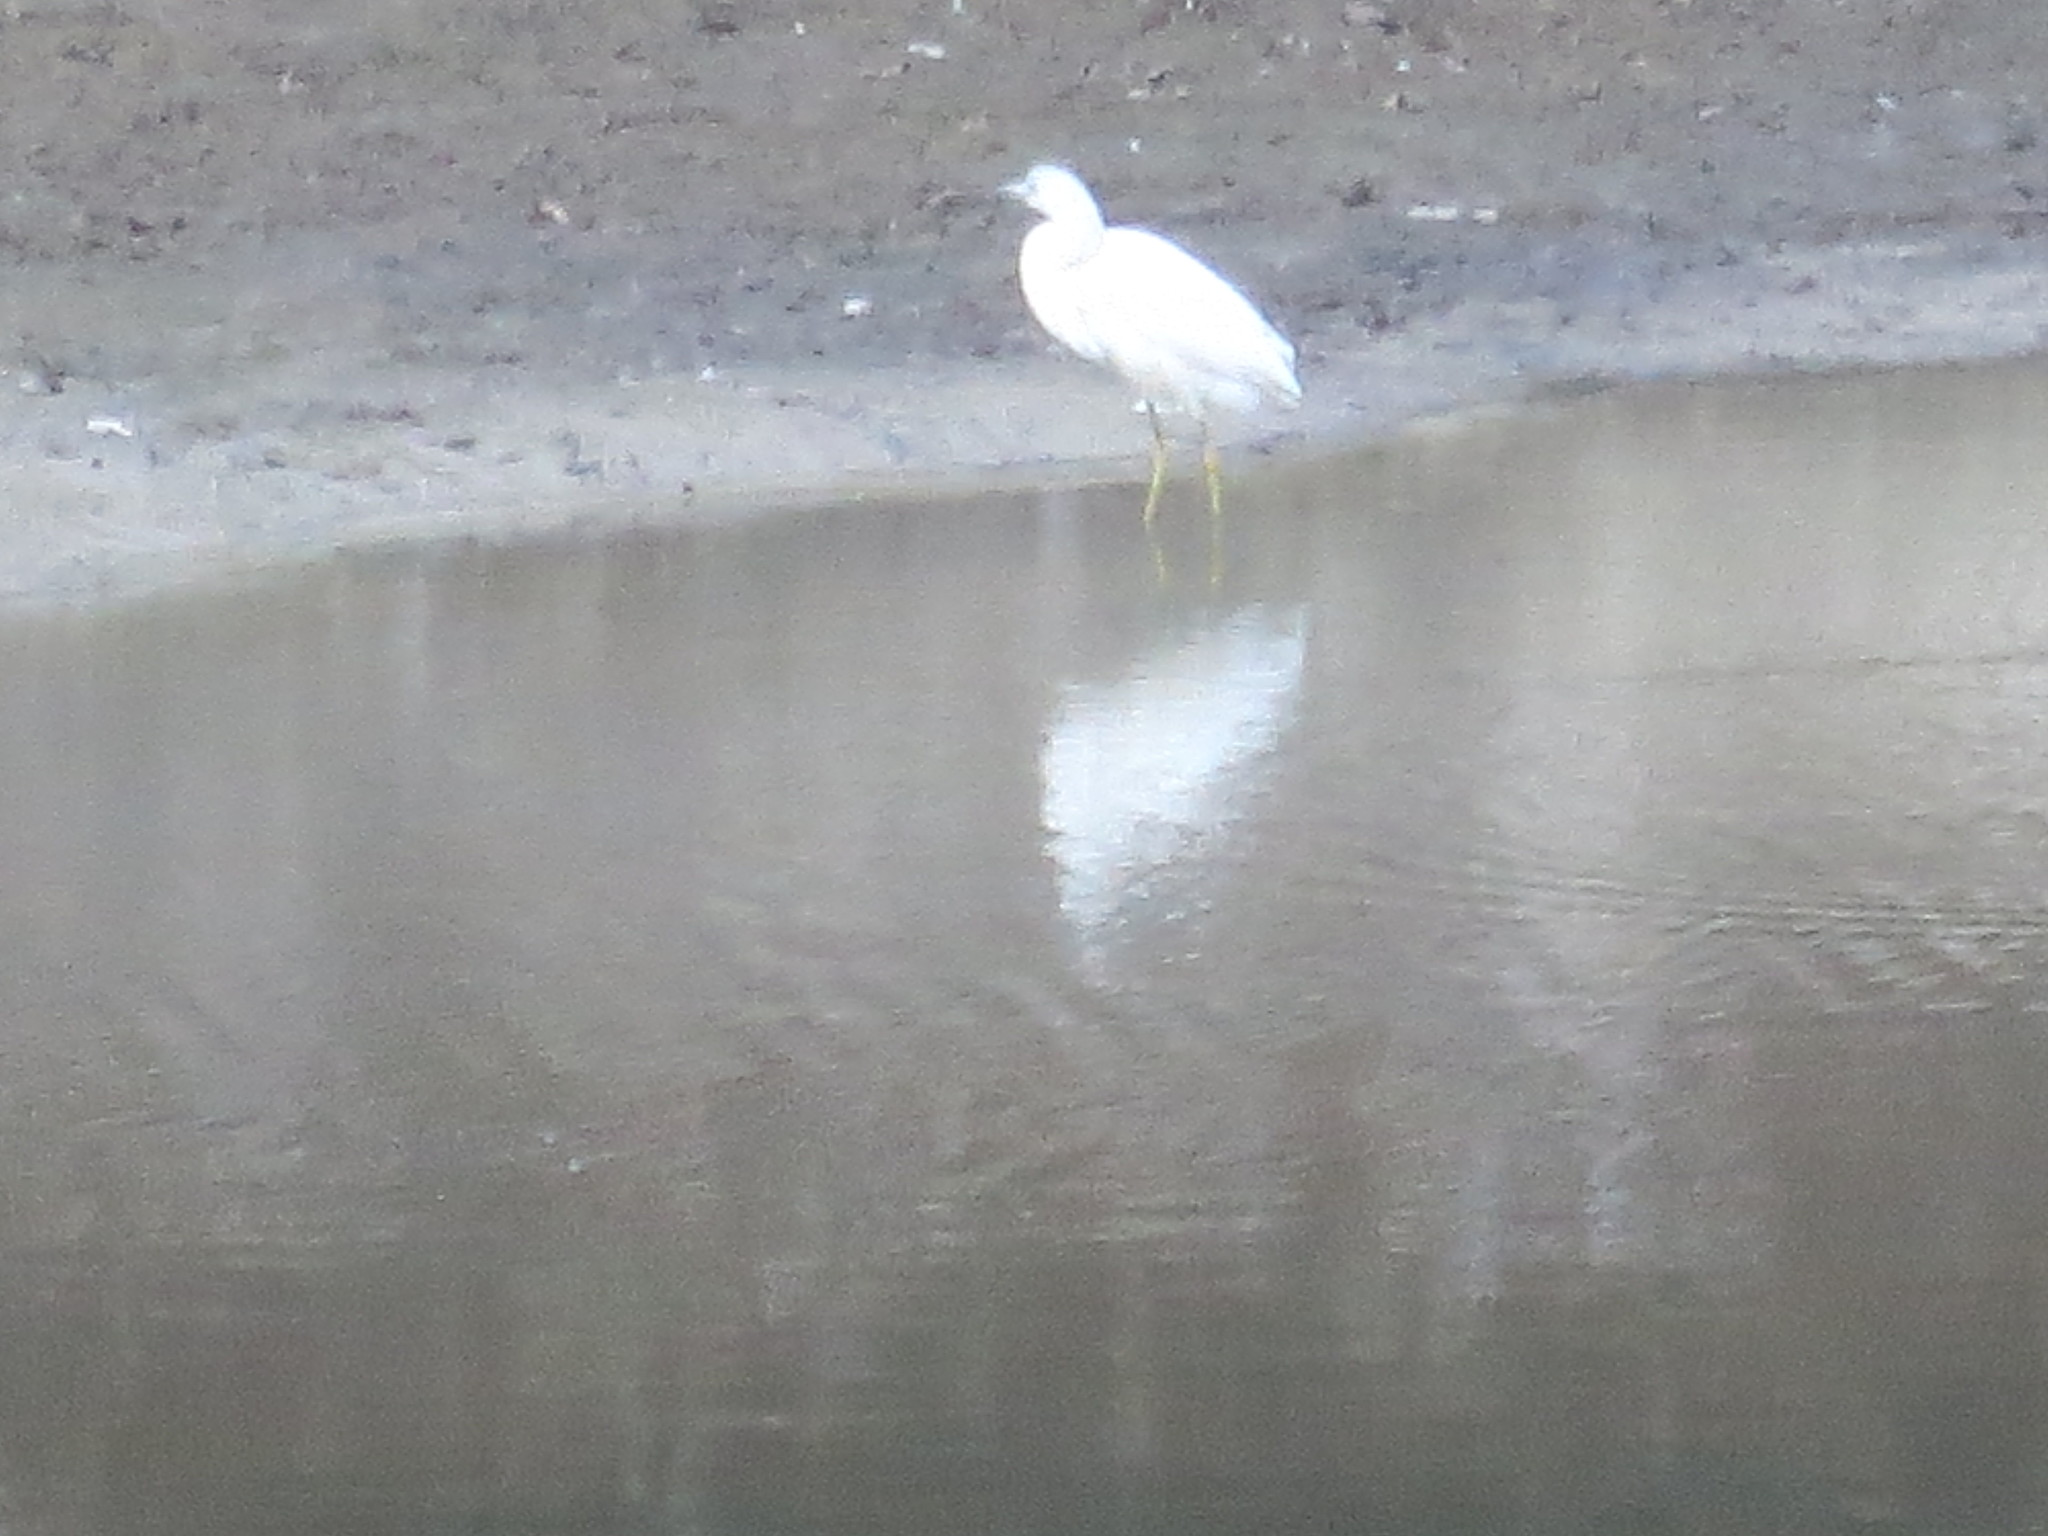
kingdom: Animalia
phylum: Chordata
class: Aves
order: Pelecaniformes
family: Ardeidae
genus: Egretta
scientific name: Egretta caerulea
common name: Little blue heron
